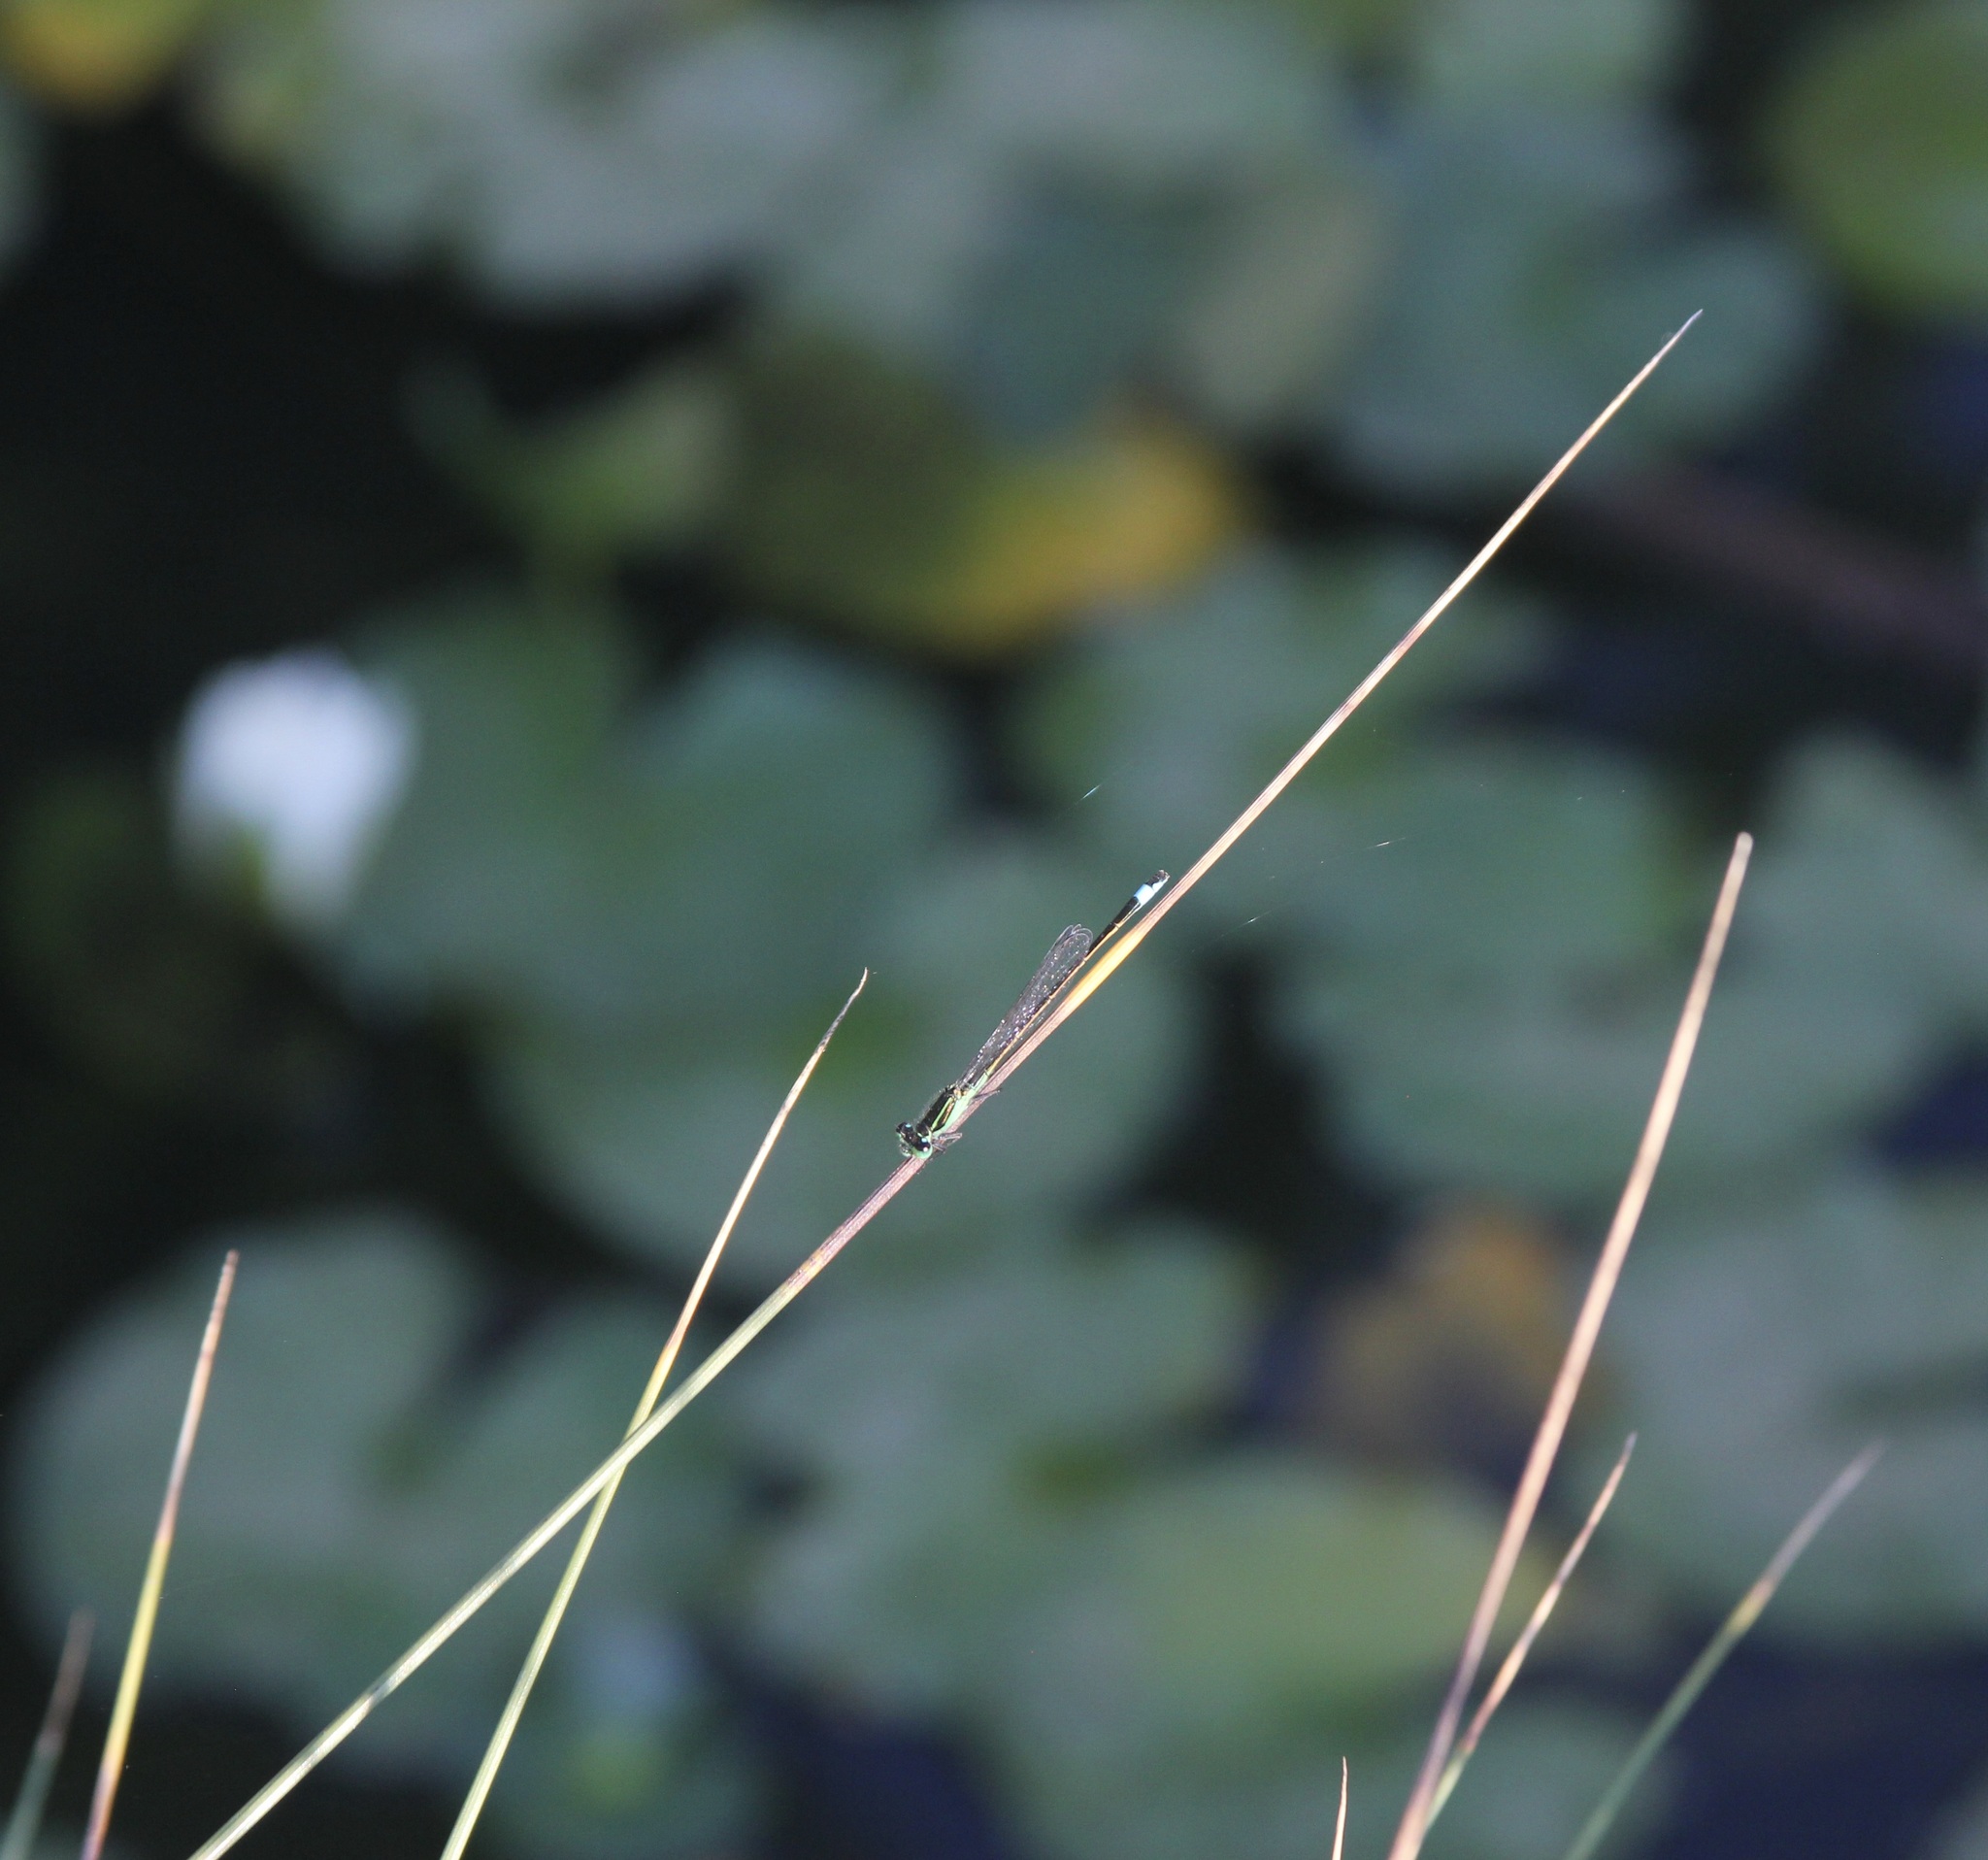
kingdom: Animalia
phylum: Arthropoda
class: Insecta
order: Odonata
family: Coenagrionidae
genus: Ischnura
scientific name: Ischnura ramburii
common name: Rambur's forktail
